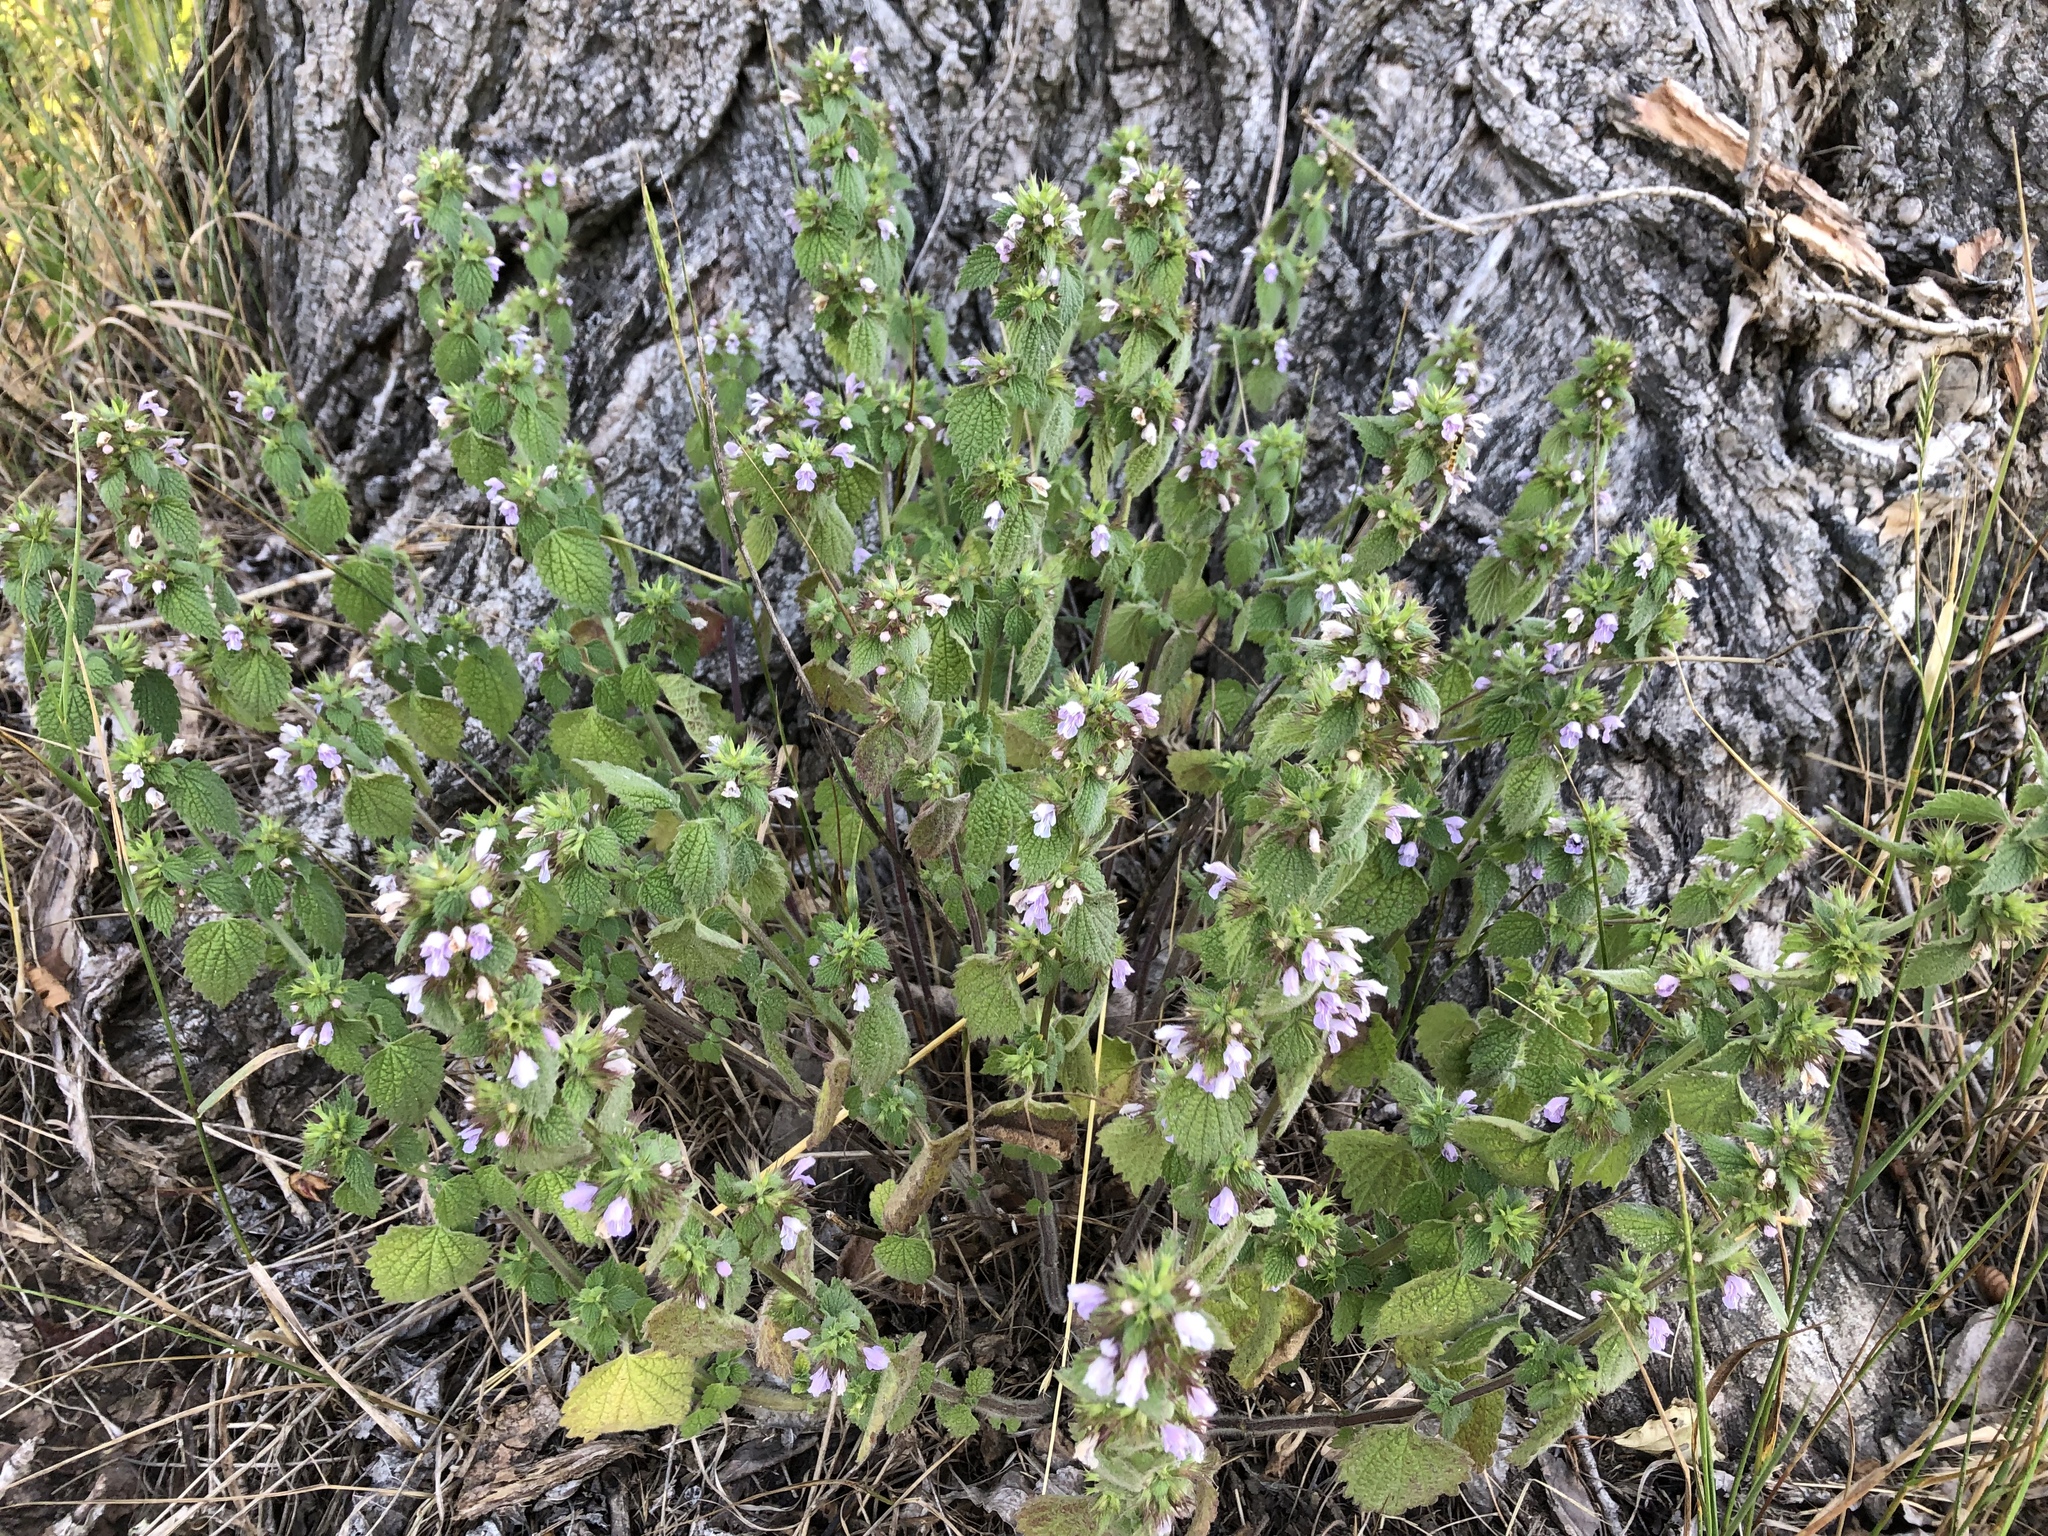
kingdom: Plantae
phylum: Tracheophyta
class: Magnoliopsida
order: Lamiales
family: Lamiaceae
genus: Ballota
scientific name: Ballota nigra
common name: Black horehound
